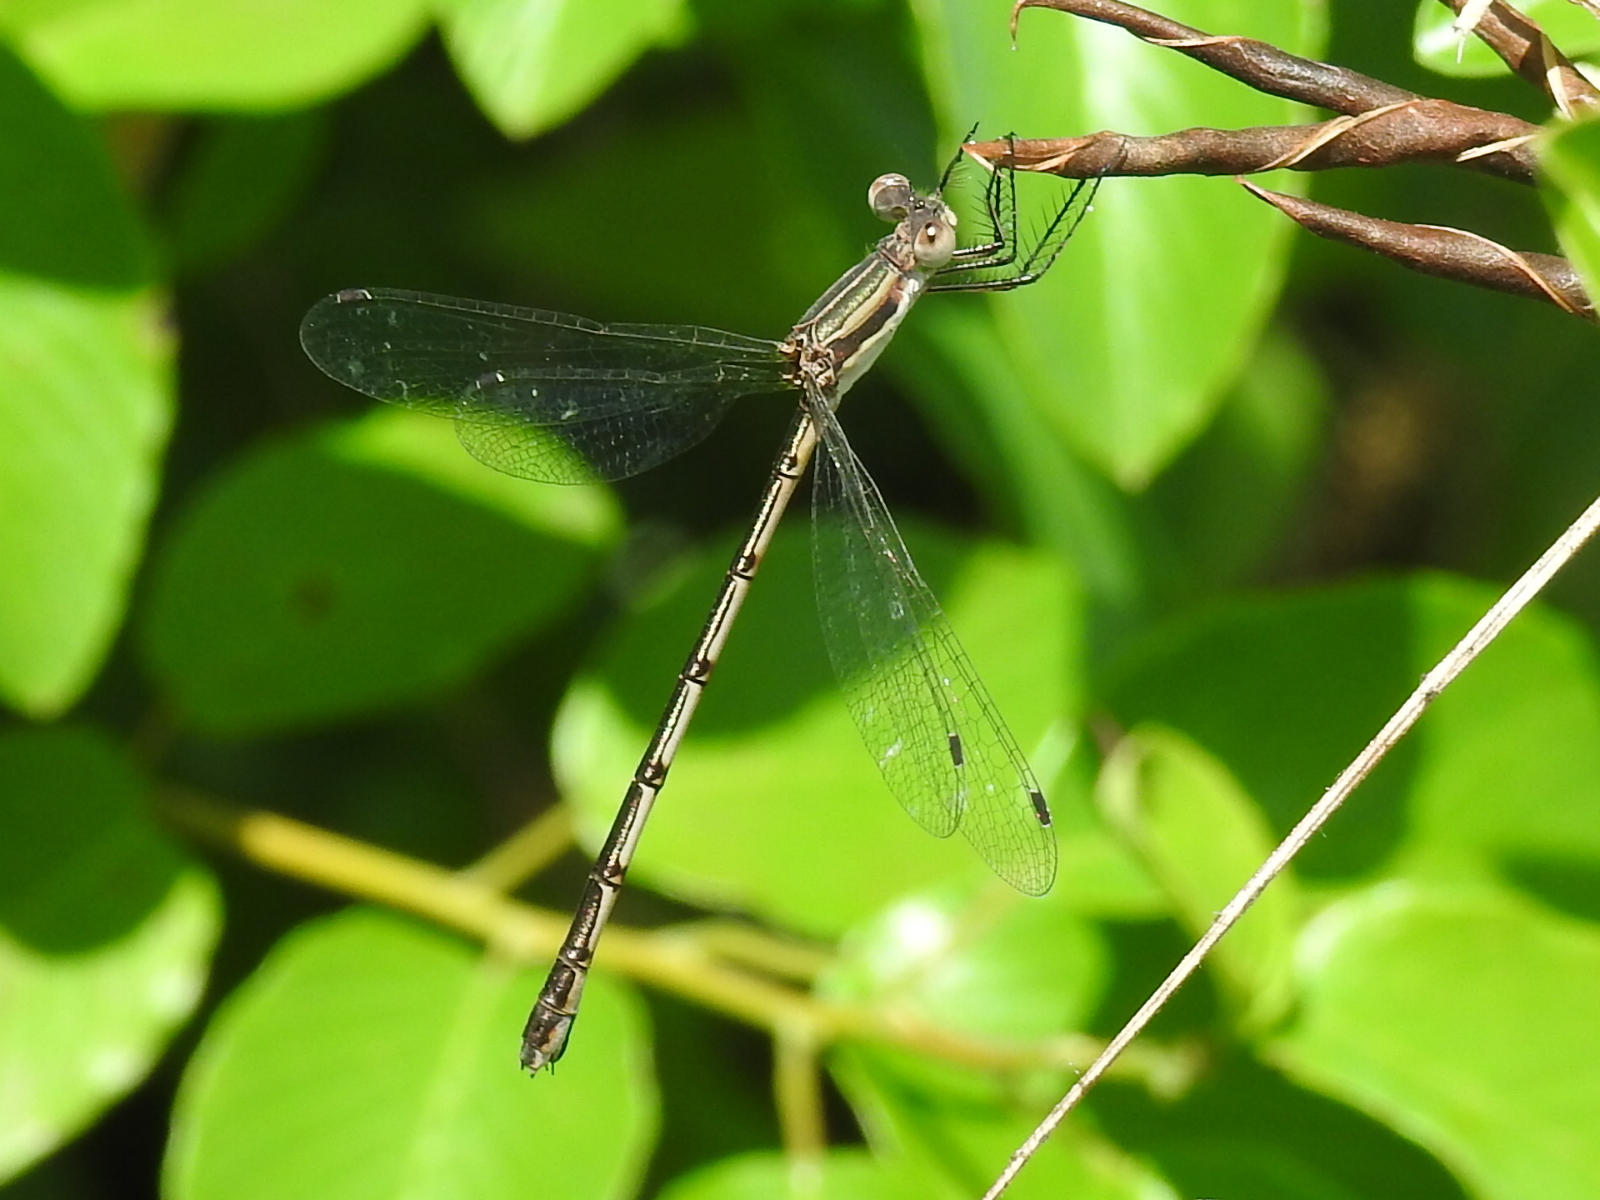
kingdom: Animalia
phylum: Arthropoda
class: Insecta
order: Odonata
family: Lestidae
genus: Lestes
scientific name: Lestes australis
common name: Southern spreadwing
